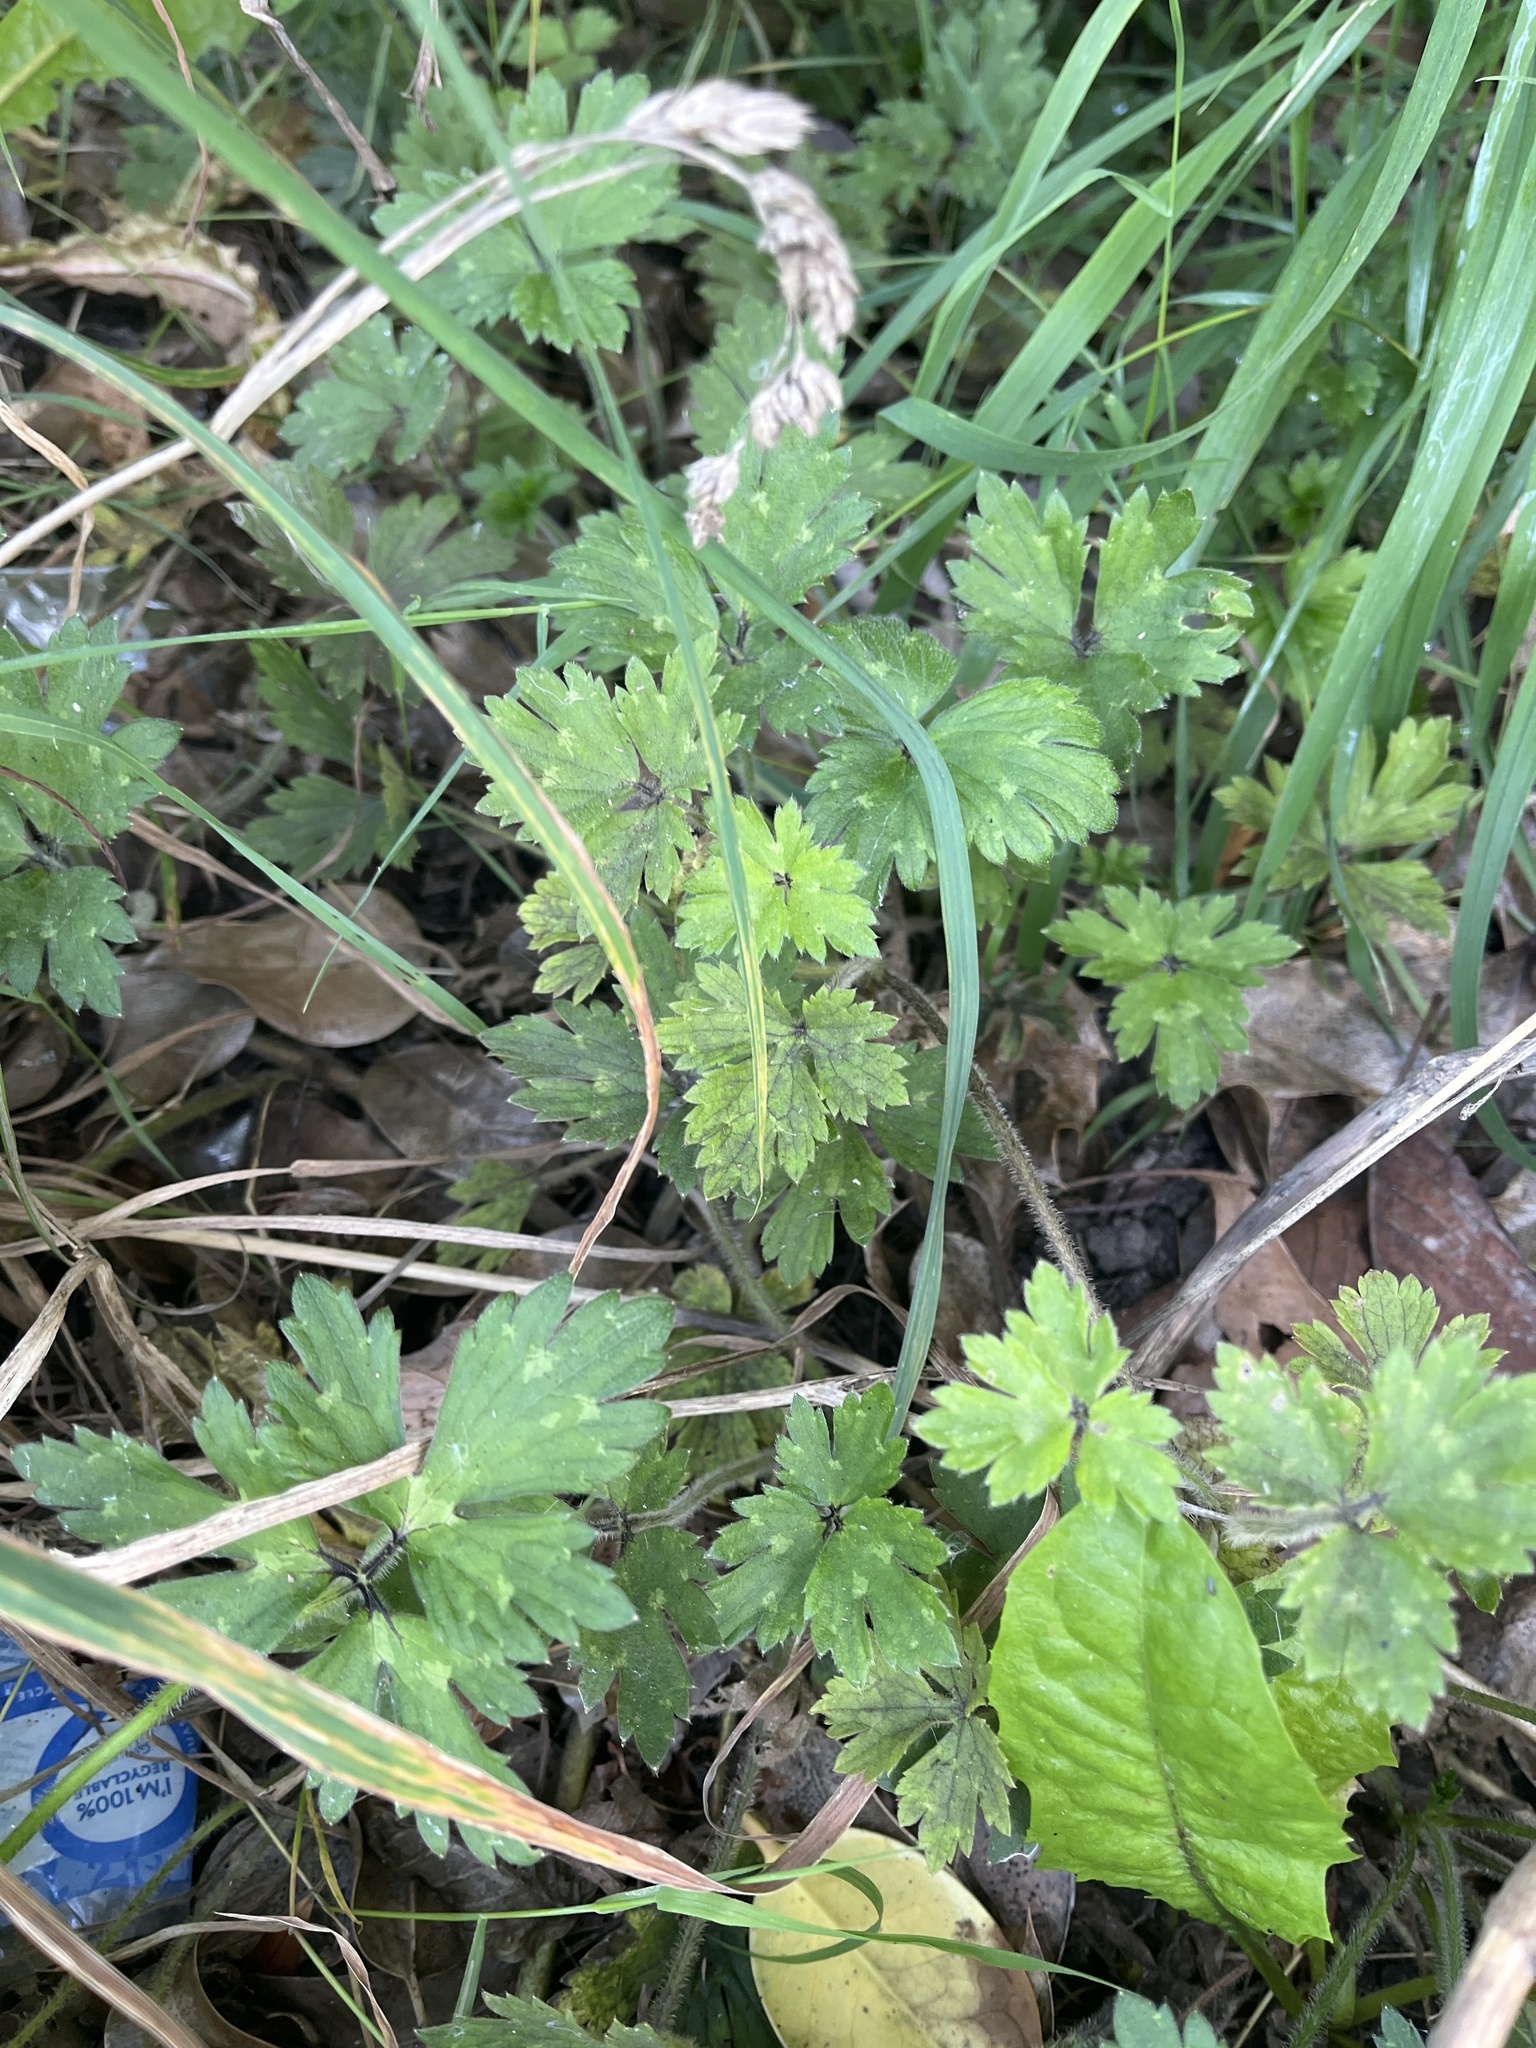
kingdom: Plantae
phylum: Tracheophyta
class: Magnoliopsida
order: Ranunculales
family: Ranunculaceae
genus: Ranunculus
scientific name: Ranunculus repens
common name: Creeping buttercup
